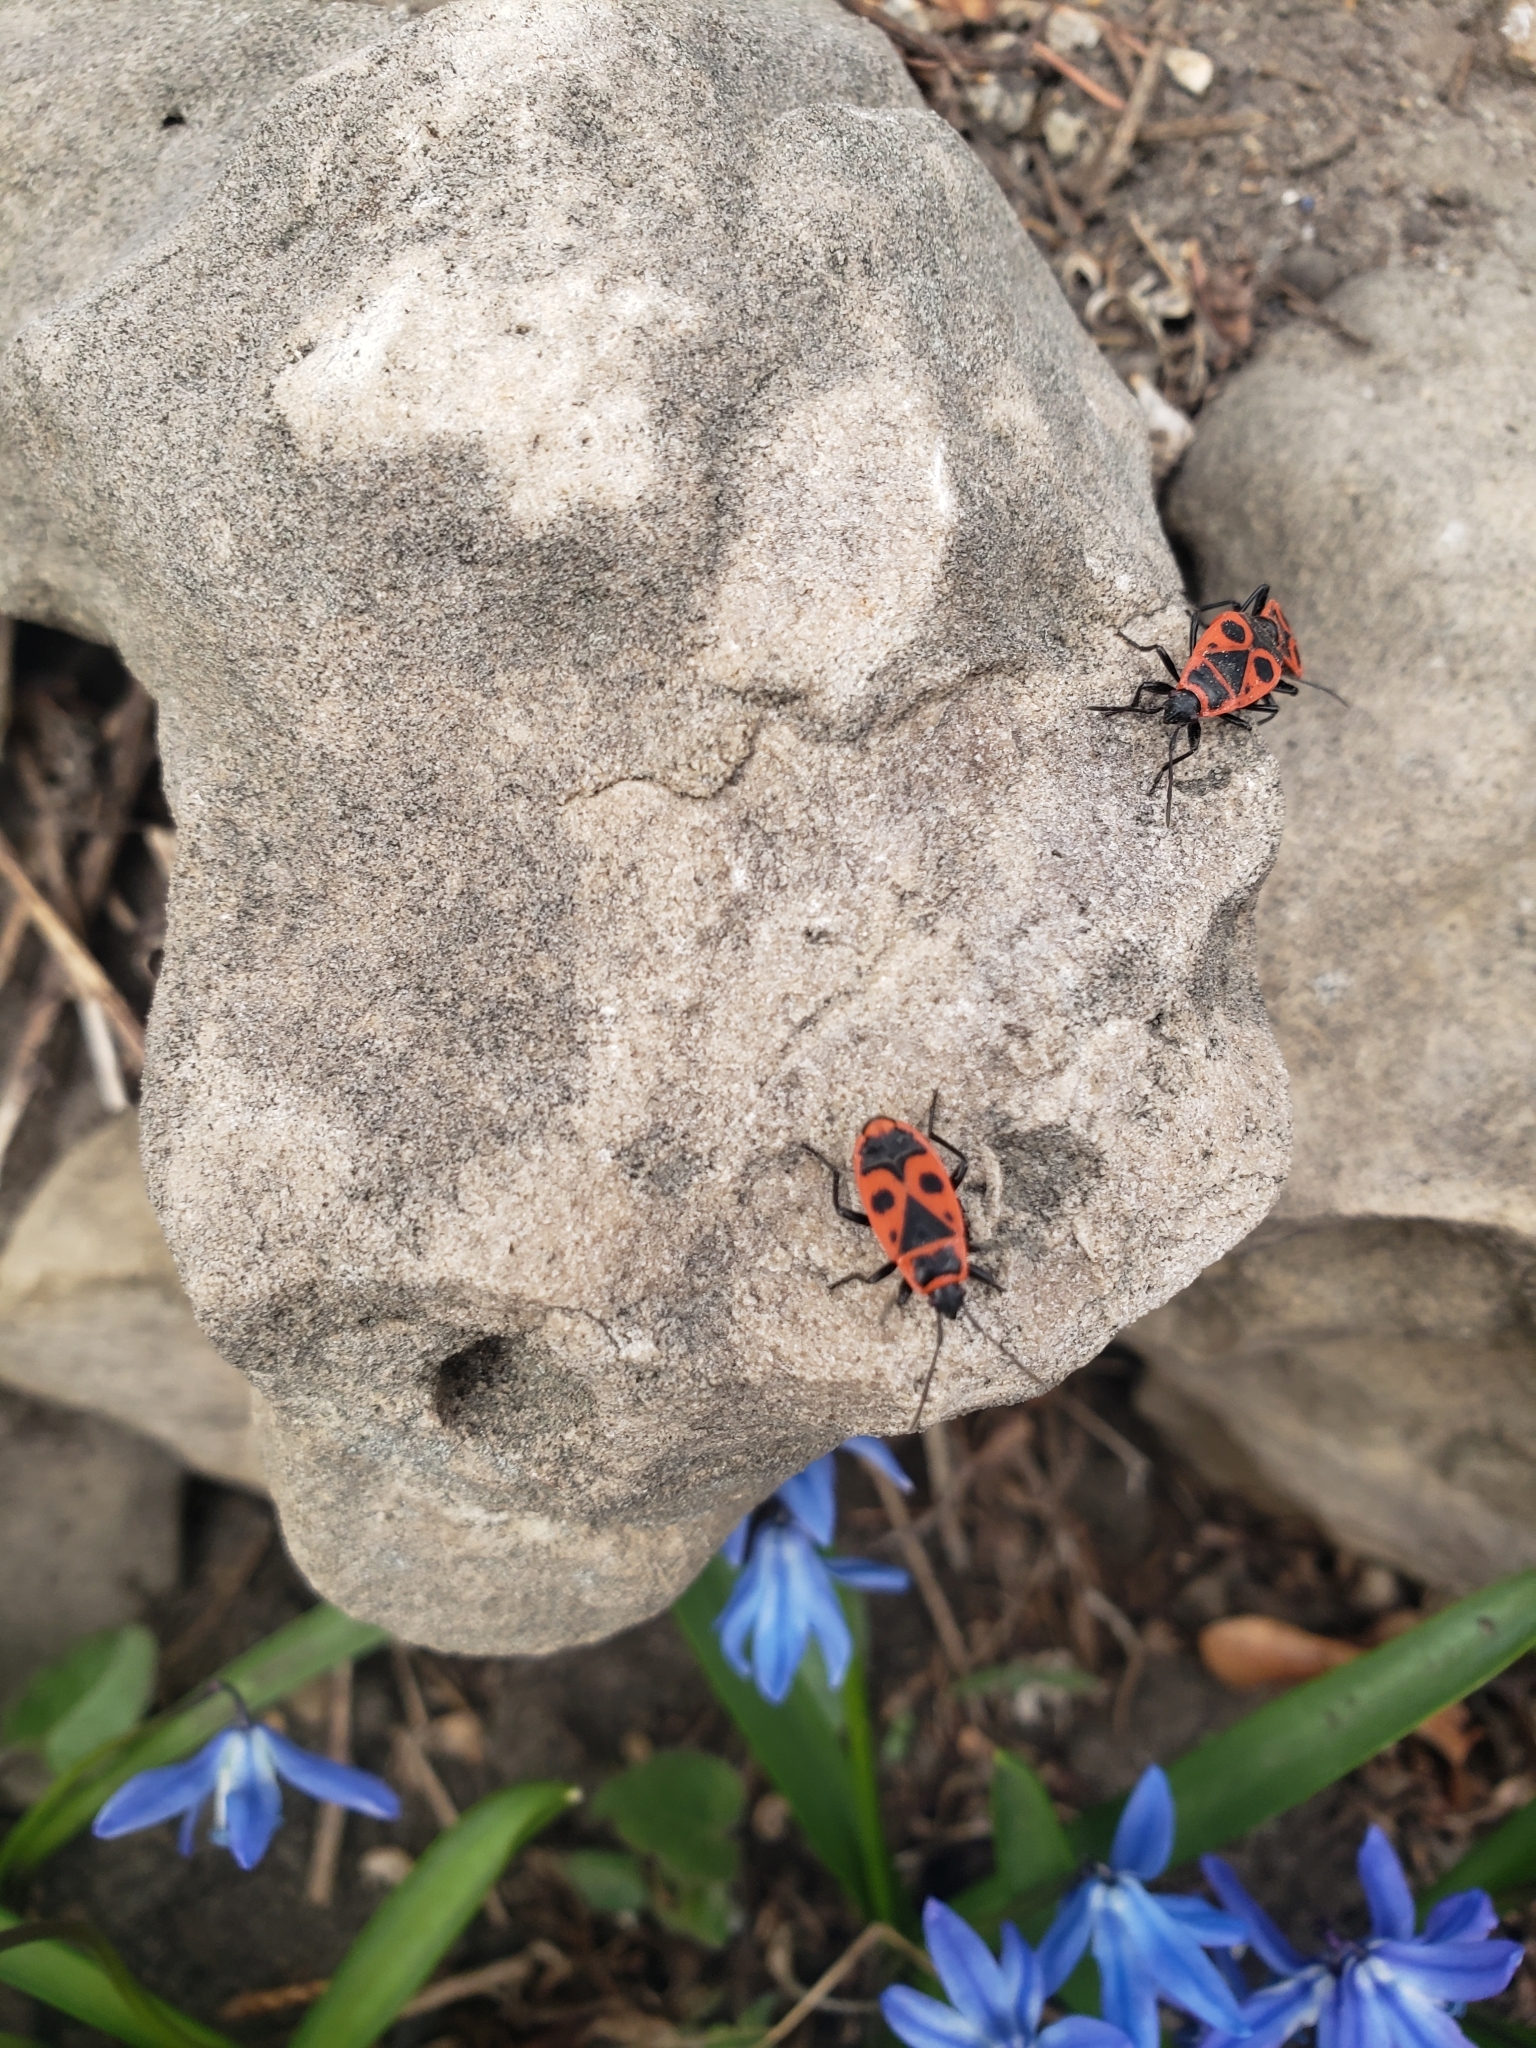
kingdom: Animalia
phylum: Arthropoda
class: Insecta
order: Hemiptera
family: Pyrrhocoridae
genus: Pyrrhocoris
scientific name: Pyrrhocoris apterus
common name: Firebug
